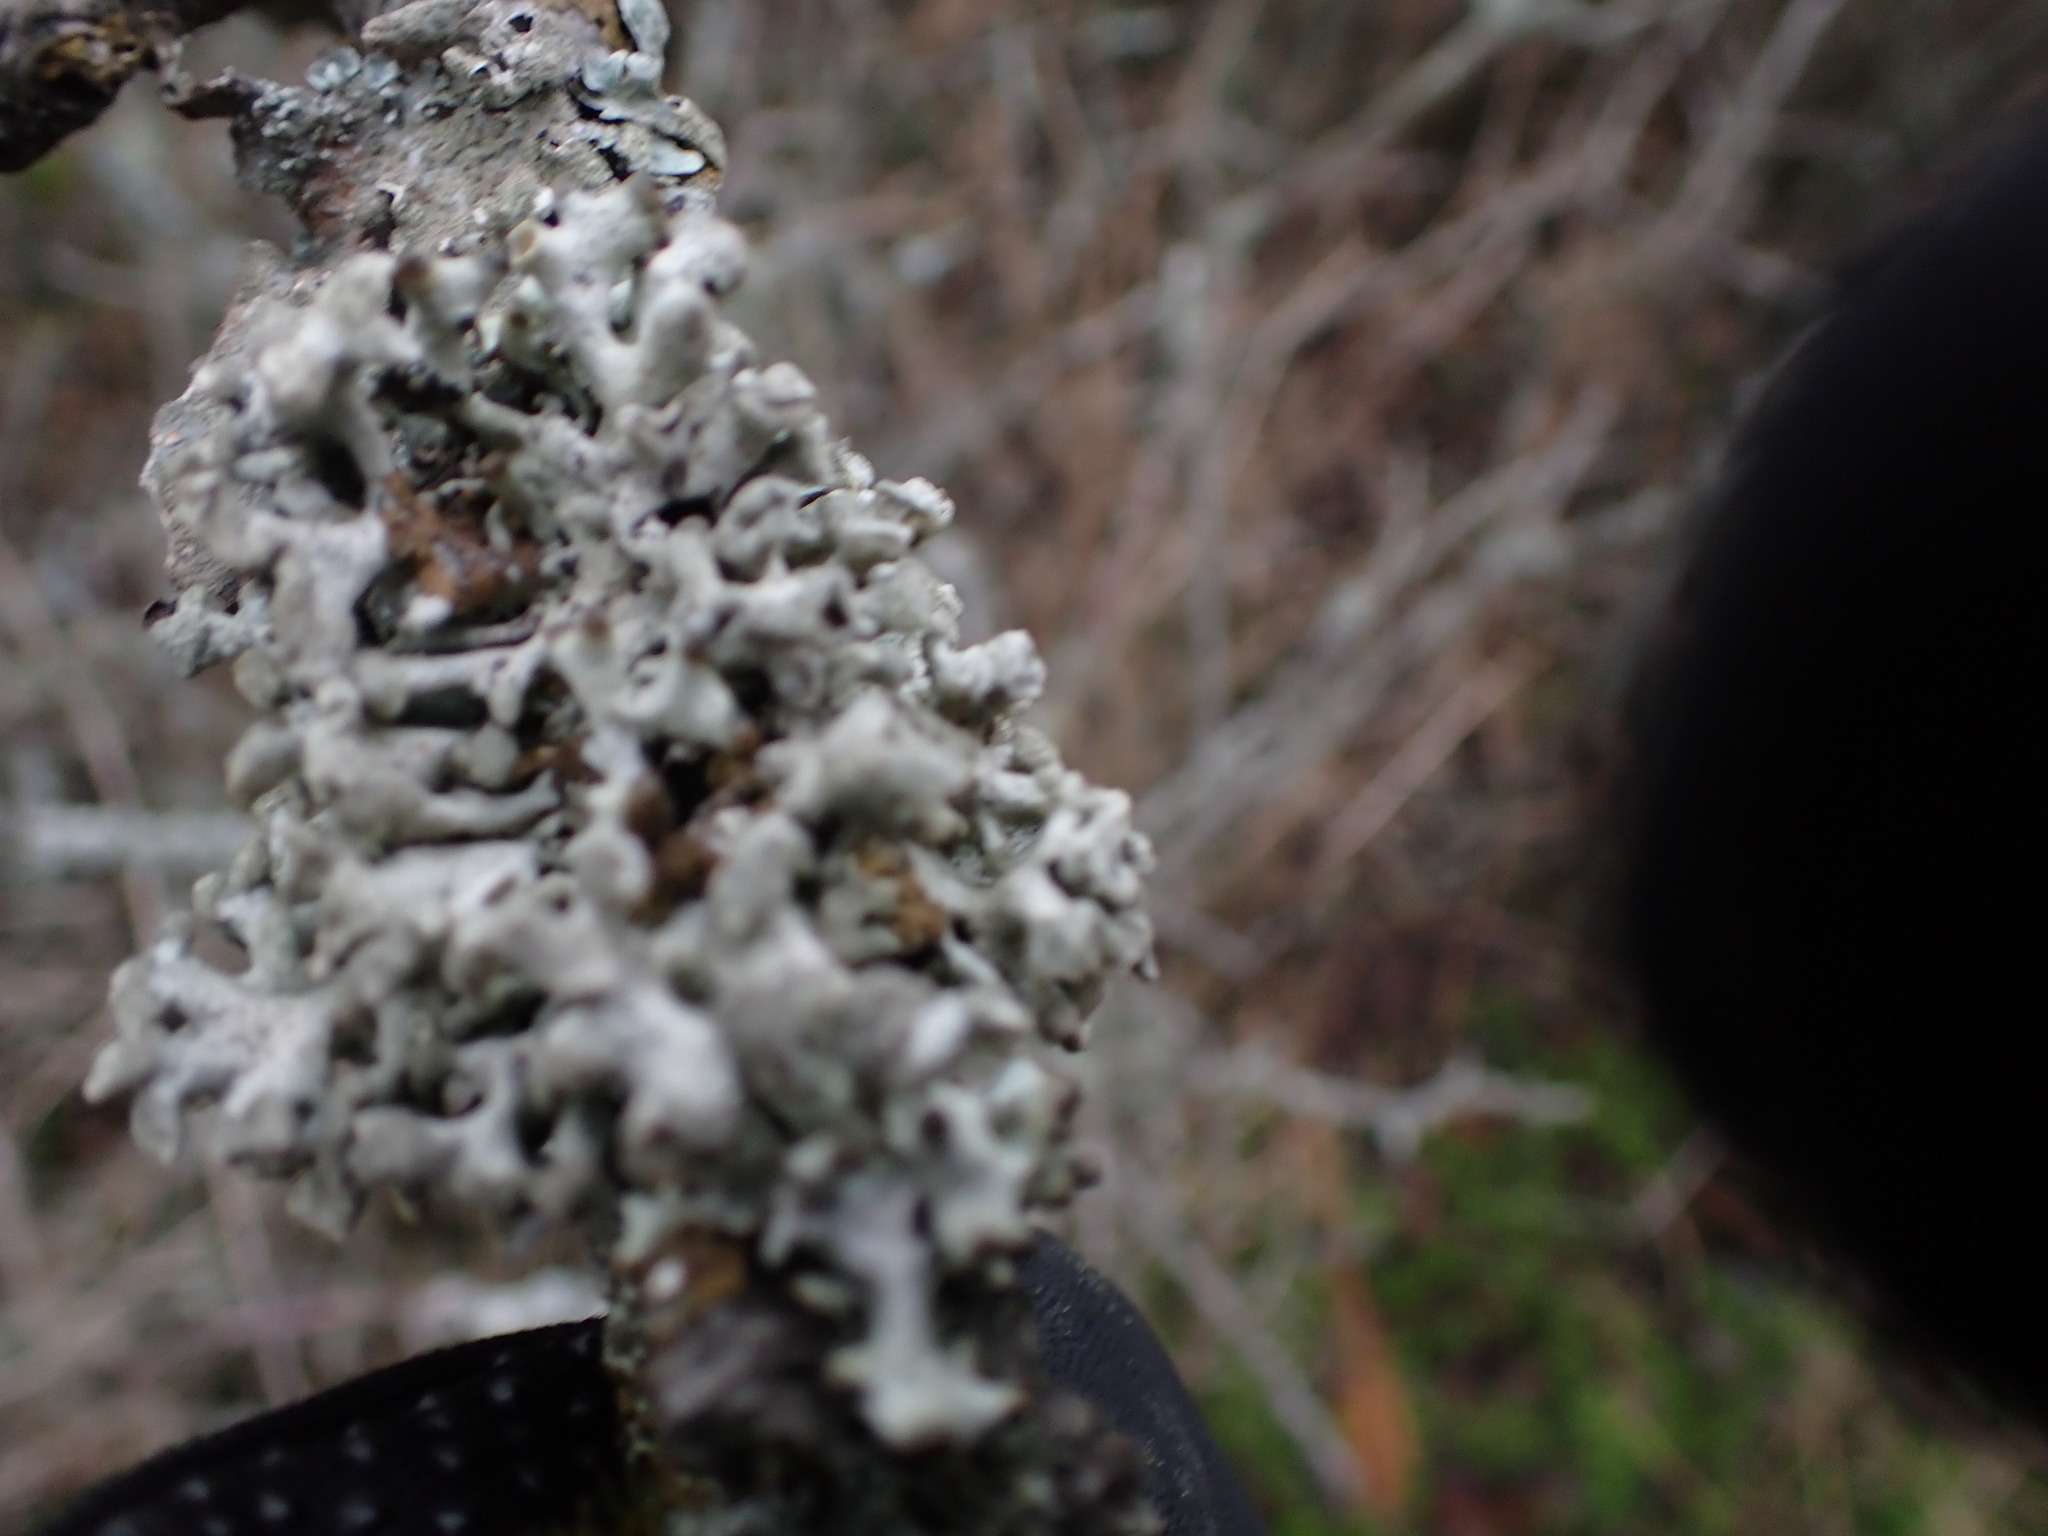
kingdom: Fungi
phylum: Ascomycota
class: Lecanoromycetes
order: Lecanorales
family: Parmeliaceae
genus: Hypogymnia
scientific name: Hypogymnia tubulosa
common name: Powder-headed tube lichen
